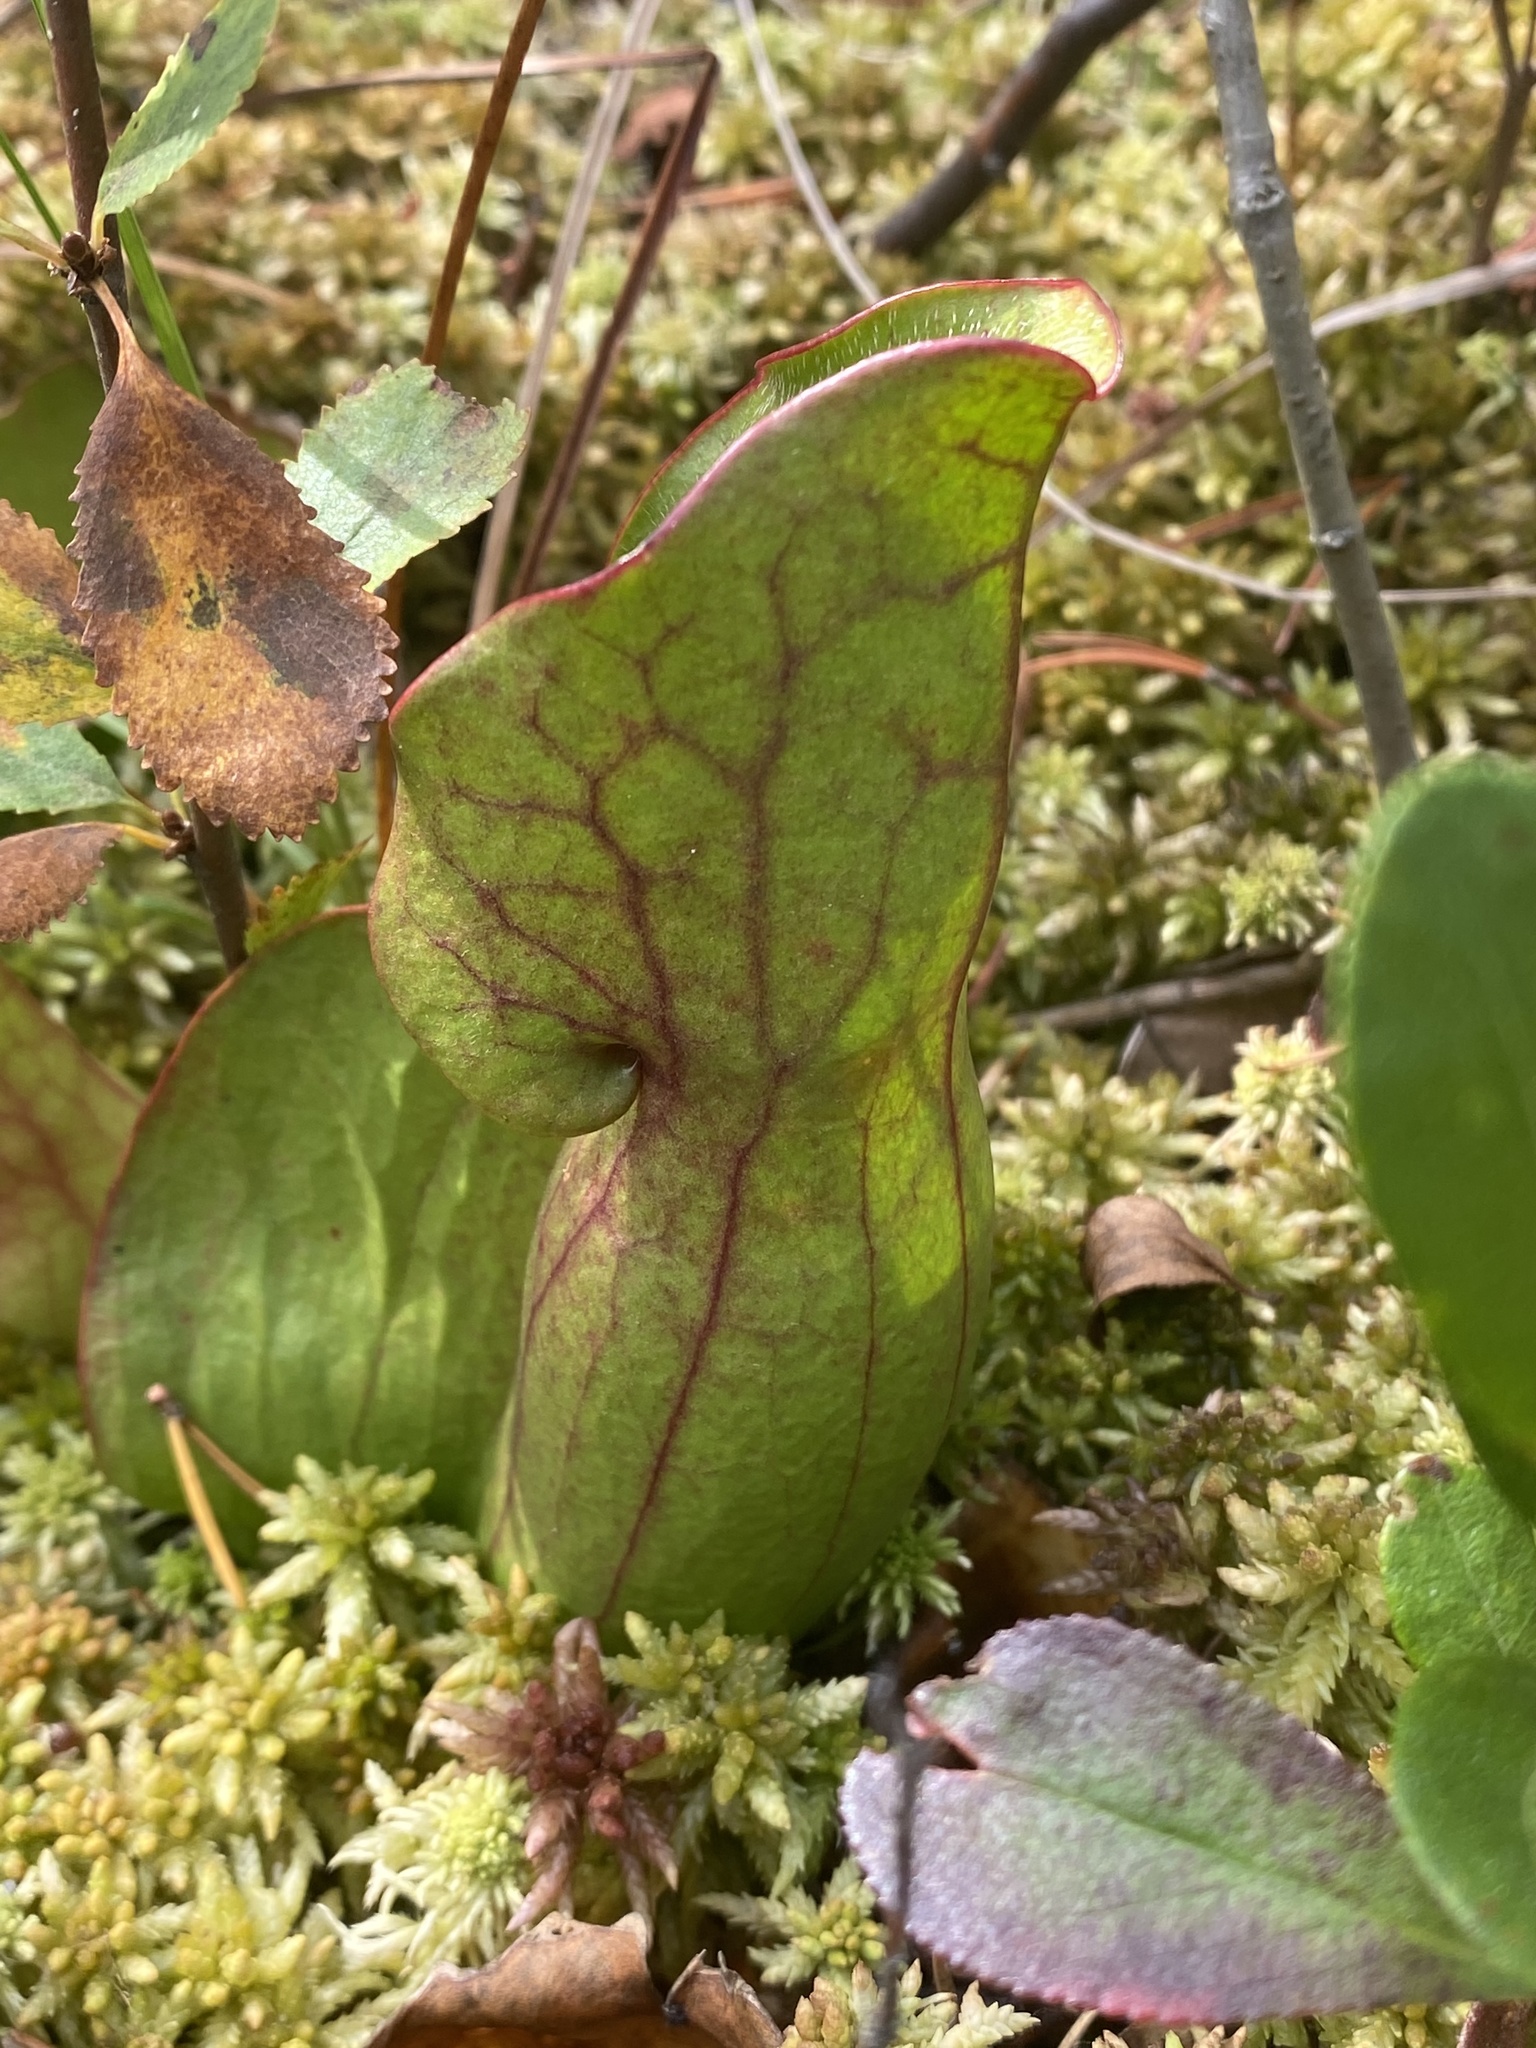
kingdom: Plantae
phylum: Tracheophyta
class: Magnoliopsida
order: Ericales
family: Sarraceniaceae
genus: Sarracenia
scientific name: Sarracenia purpurea
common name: Pitcherplant
